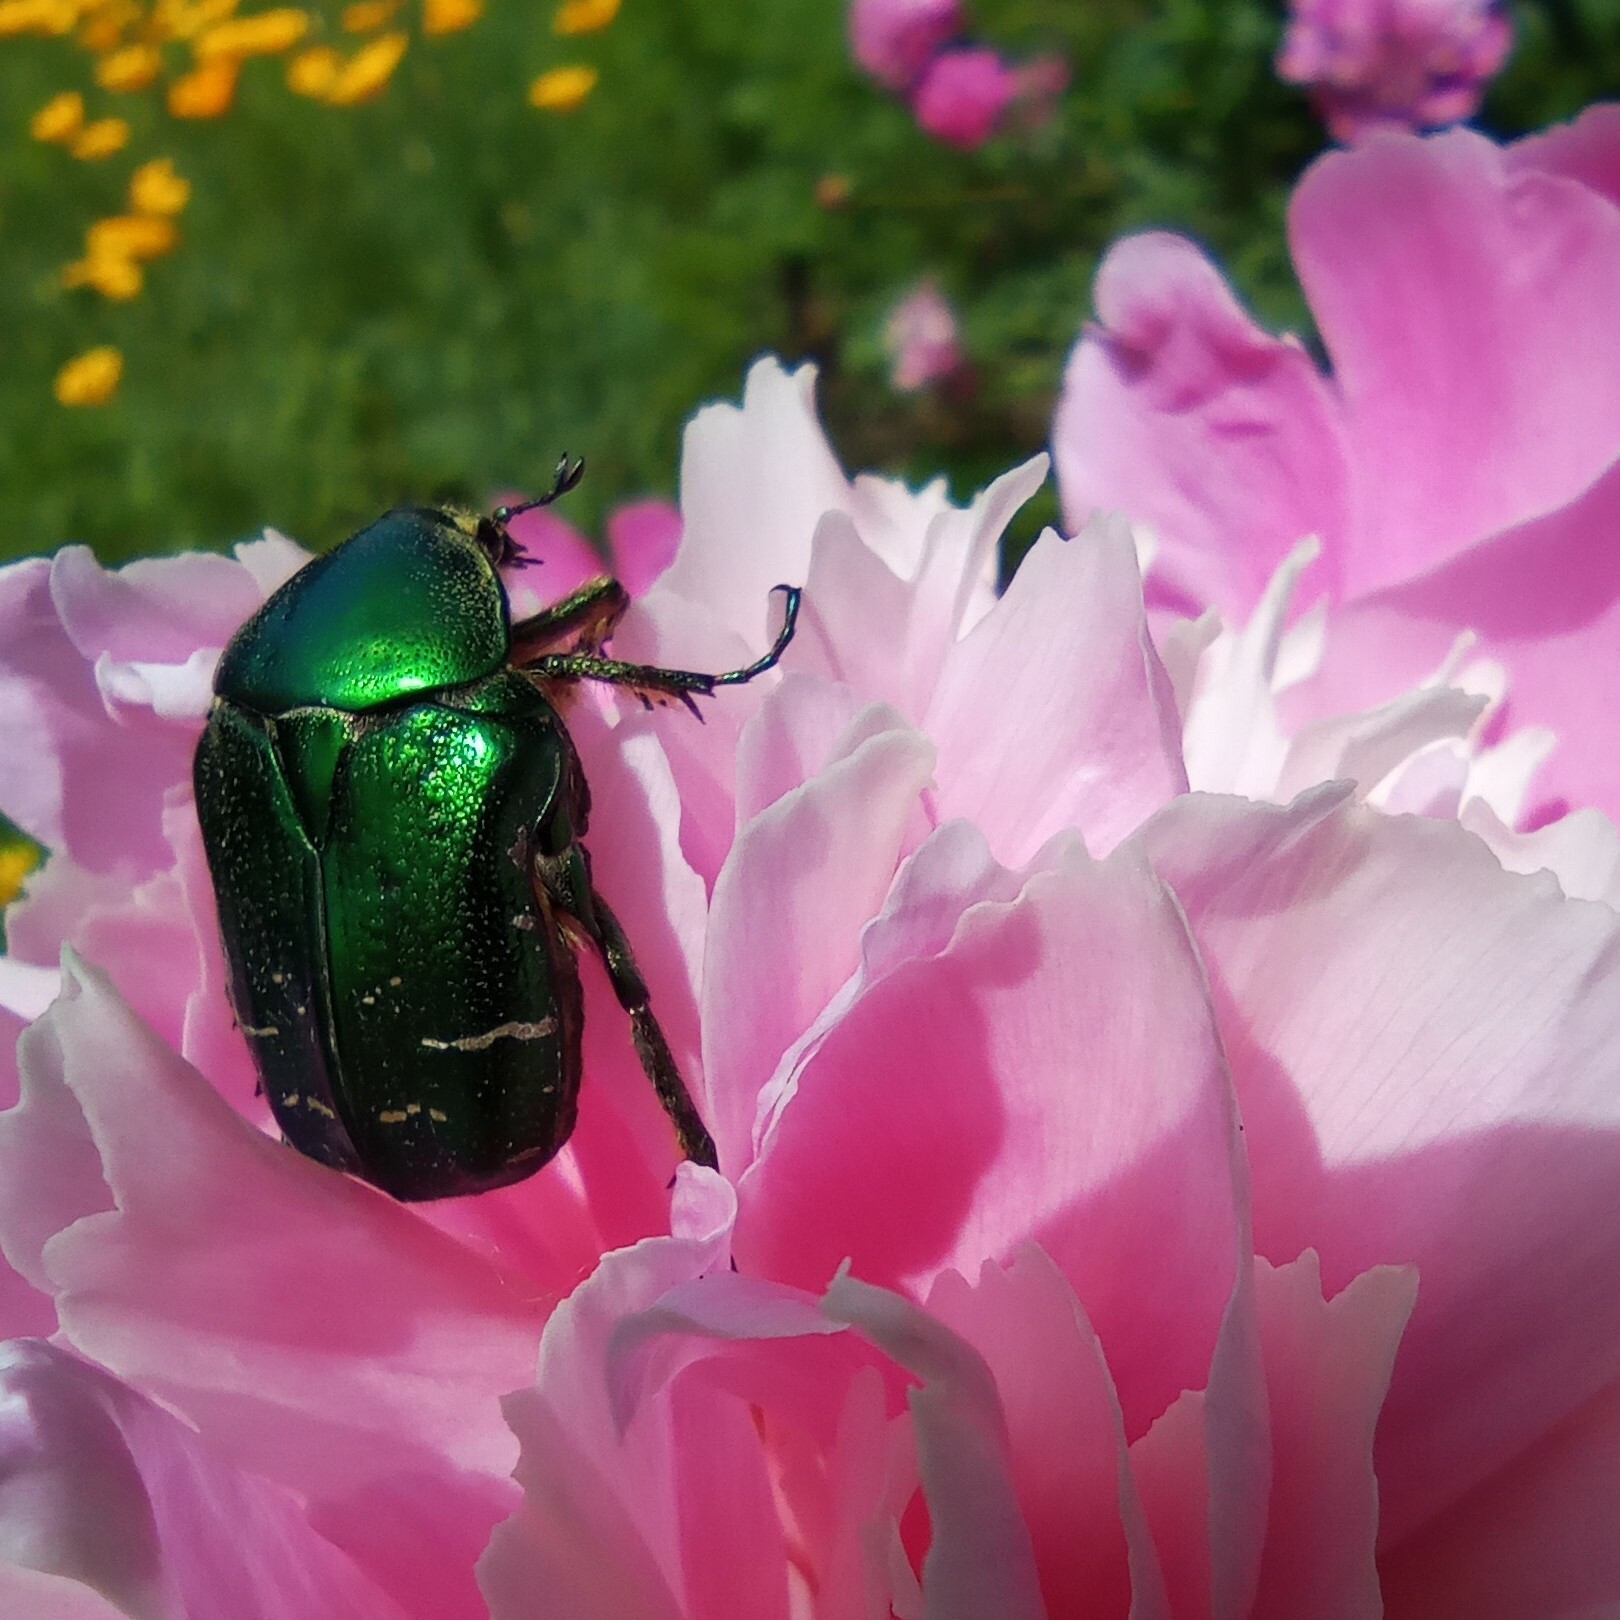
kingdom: Animalia
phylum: Arthropoda
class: Insecta
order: Coleoptera
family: Scarabaeidae
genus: Cetonia
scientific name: Cetonia aurata
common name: Rose chafer
